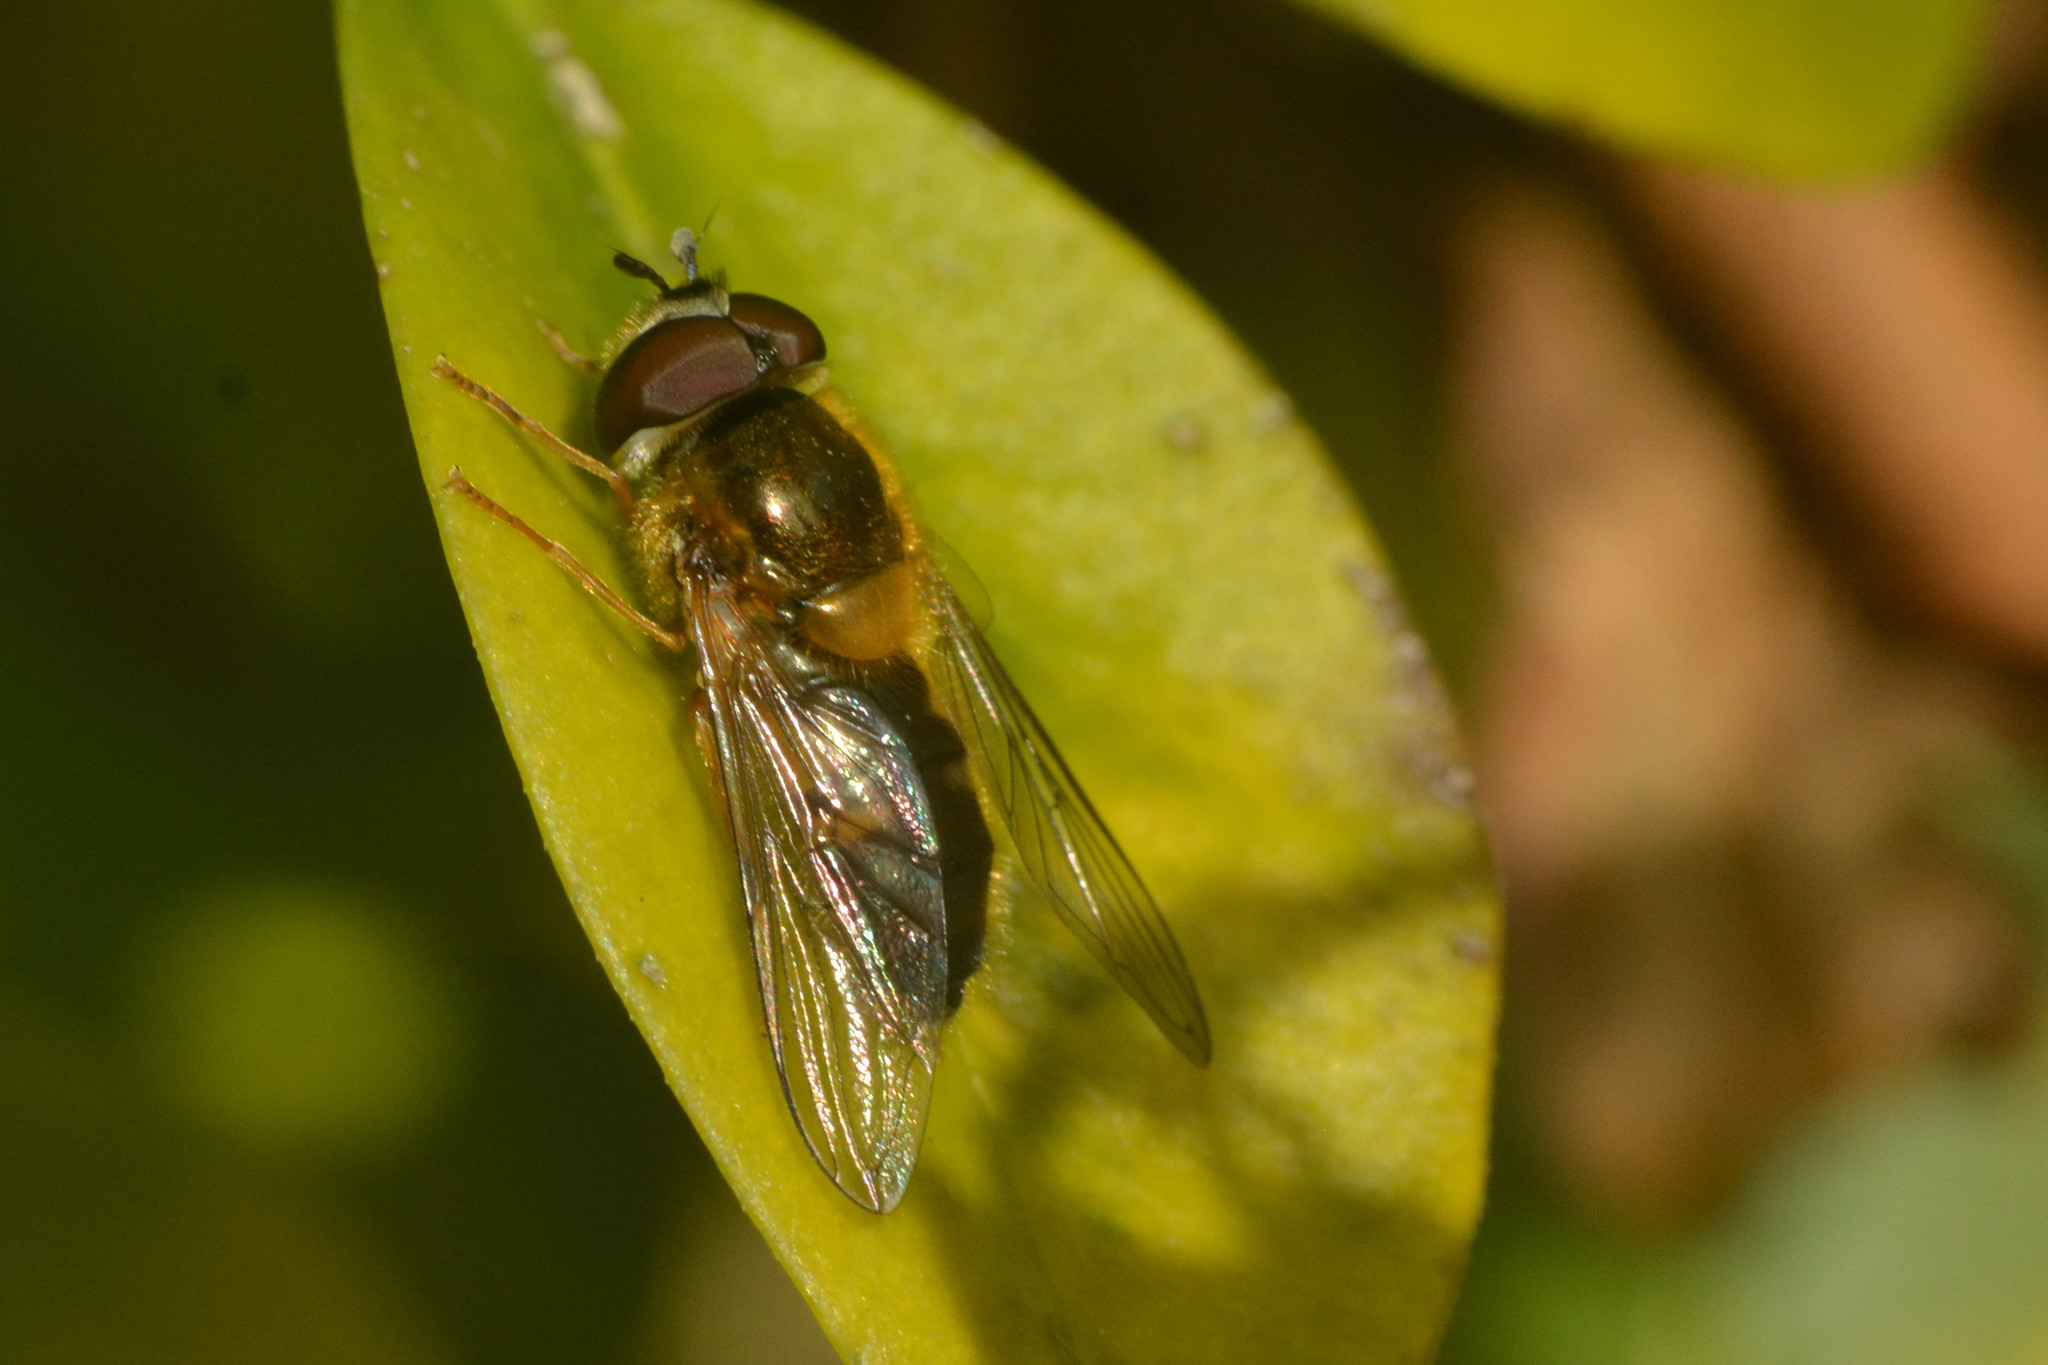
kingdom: Animalia
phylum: Arthropoda
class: Insecta
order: Diptera
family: Syrphidae
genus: Epistrophe
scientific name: Epistrophe eligans
